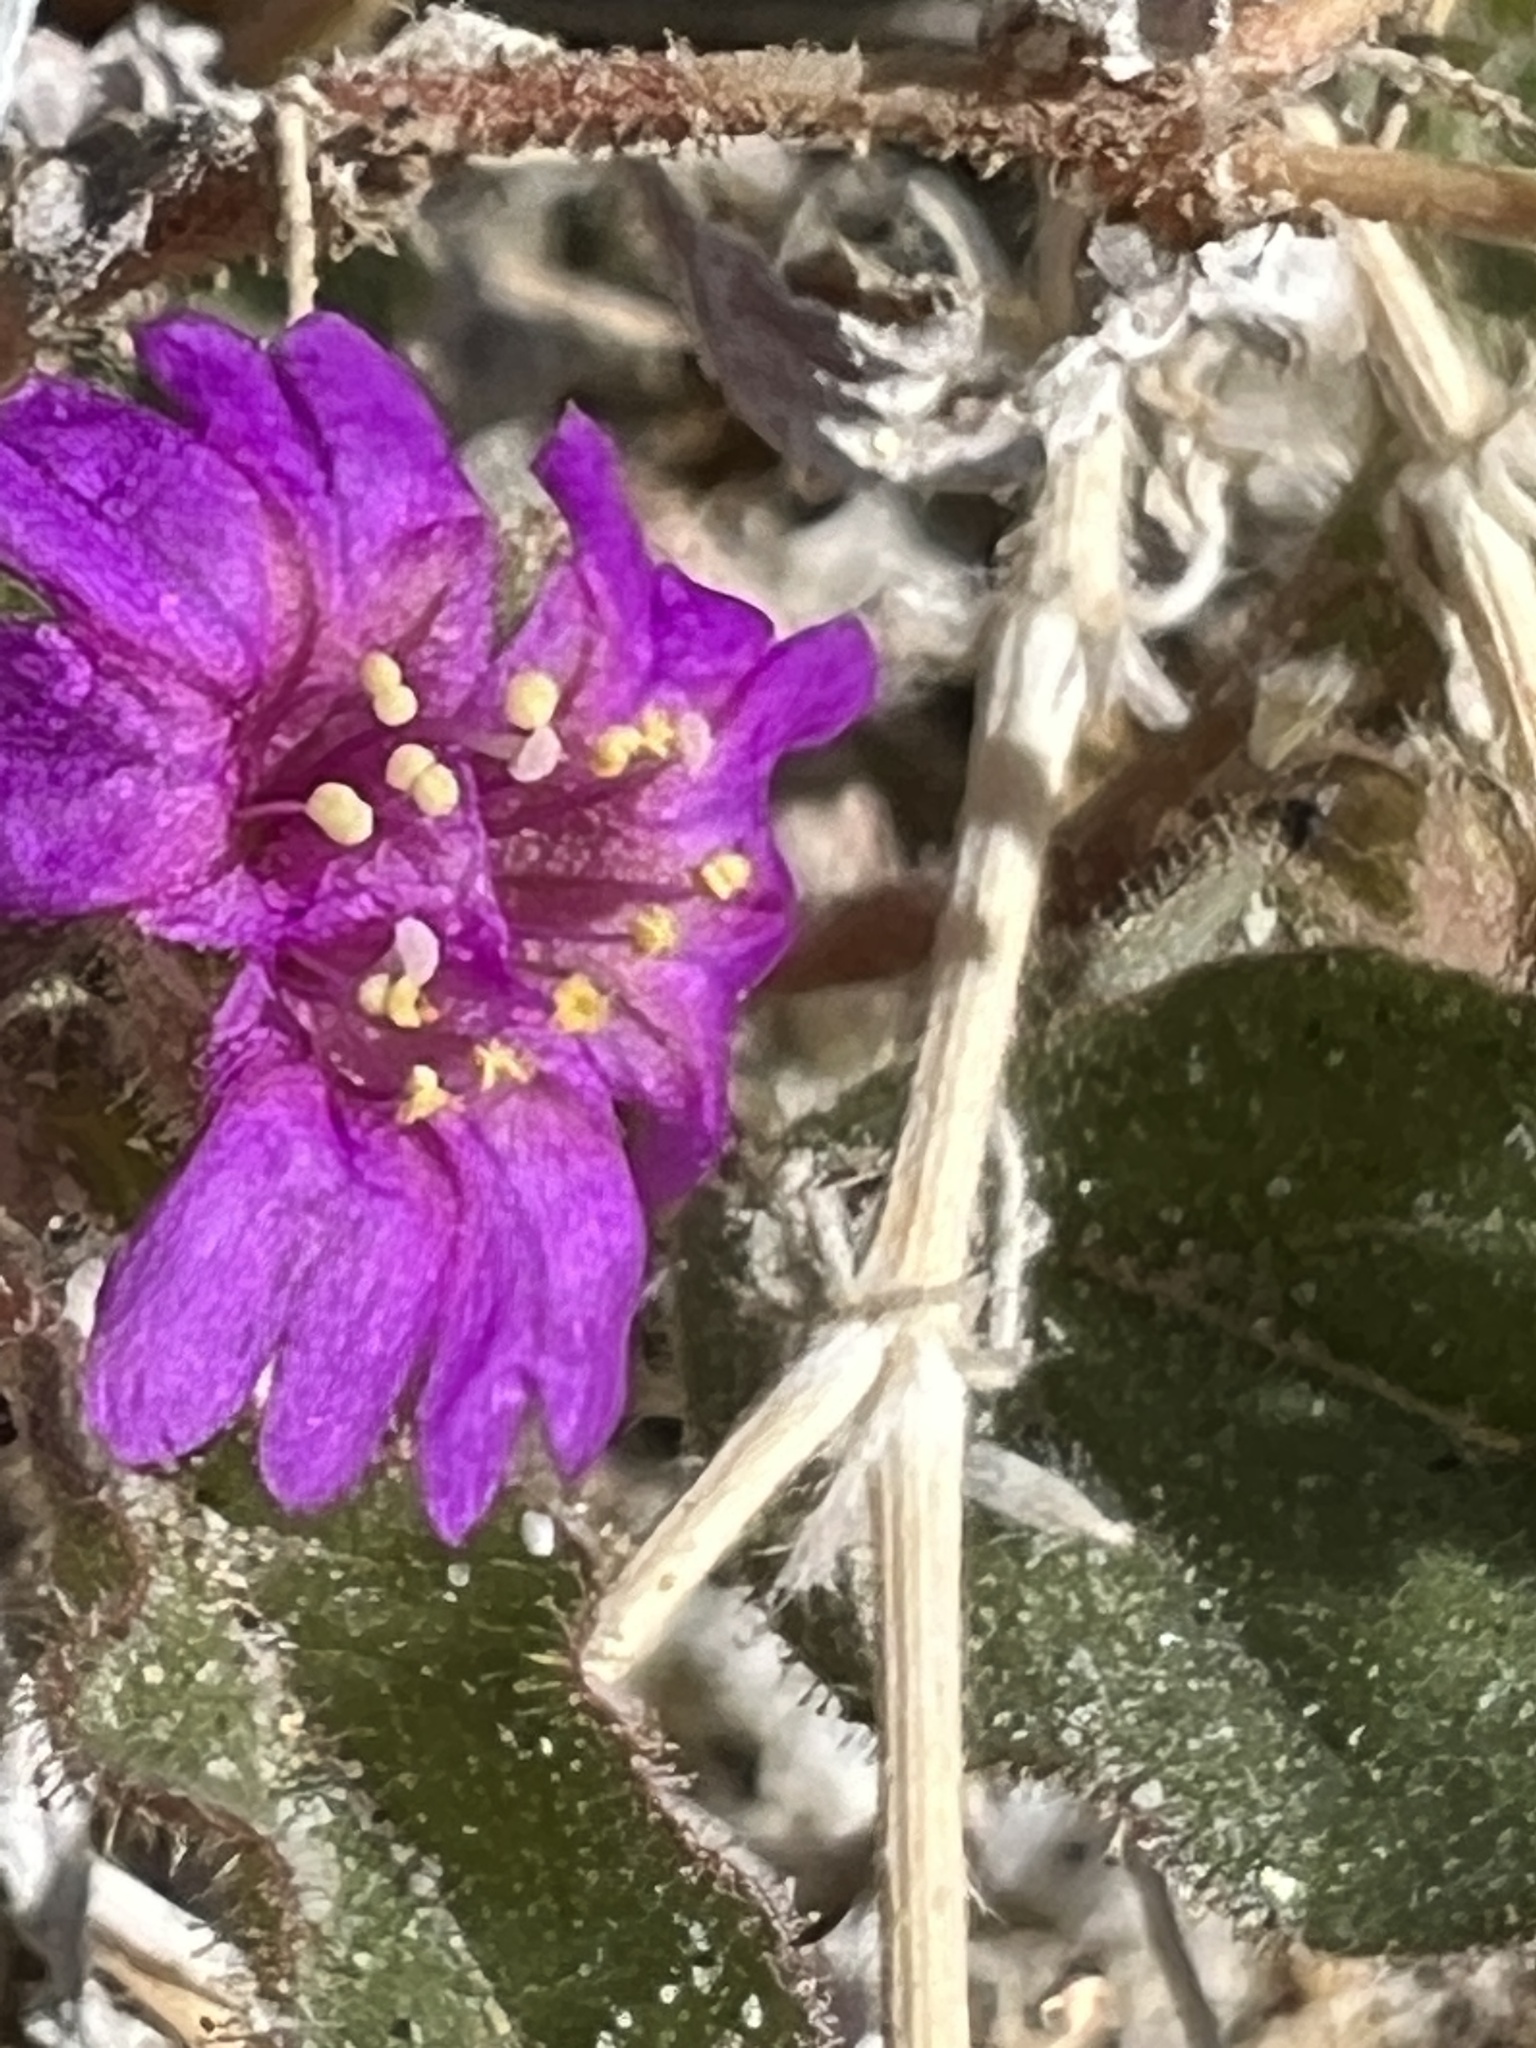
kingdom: Plantae
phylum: Tracheophyta
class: Magnoliopsida
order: Caryophyllales
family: Nyctaginaceae
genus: Allionia
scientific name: Allionia incarnata
